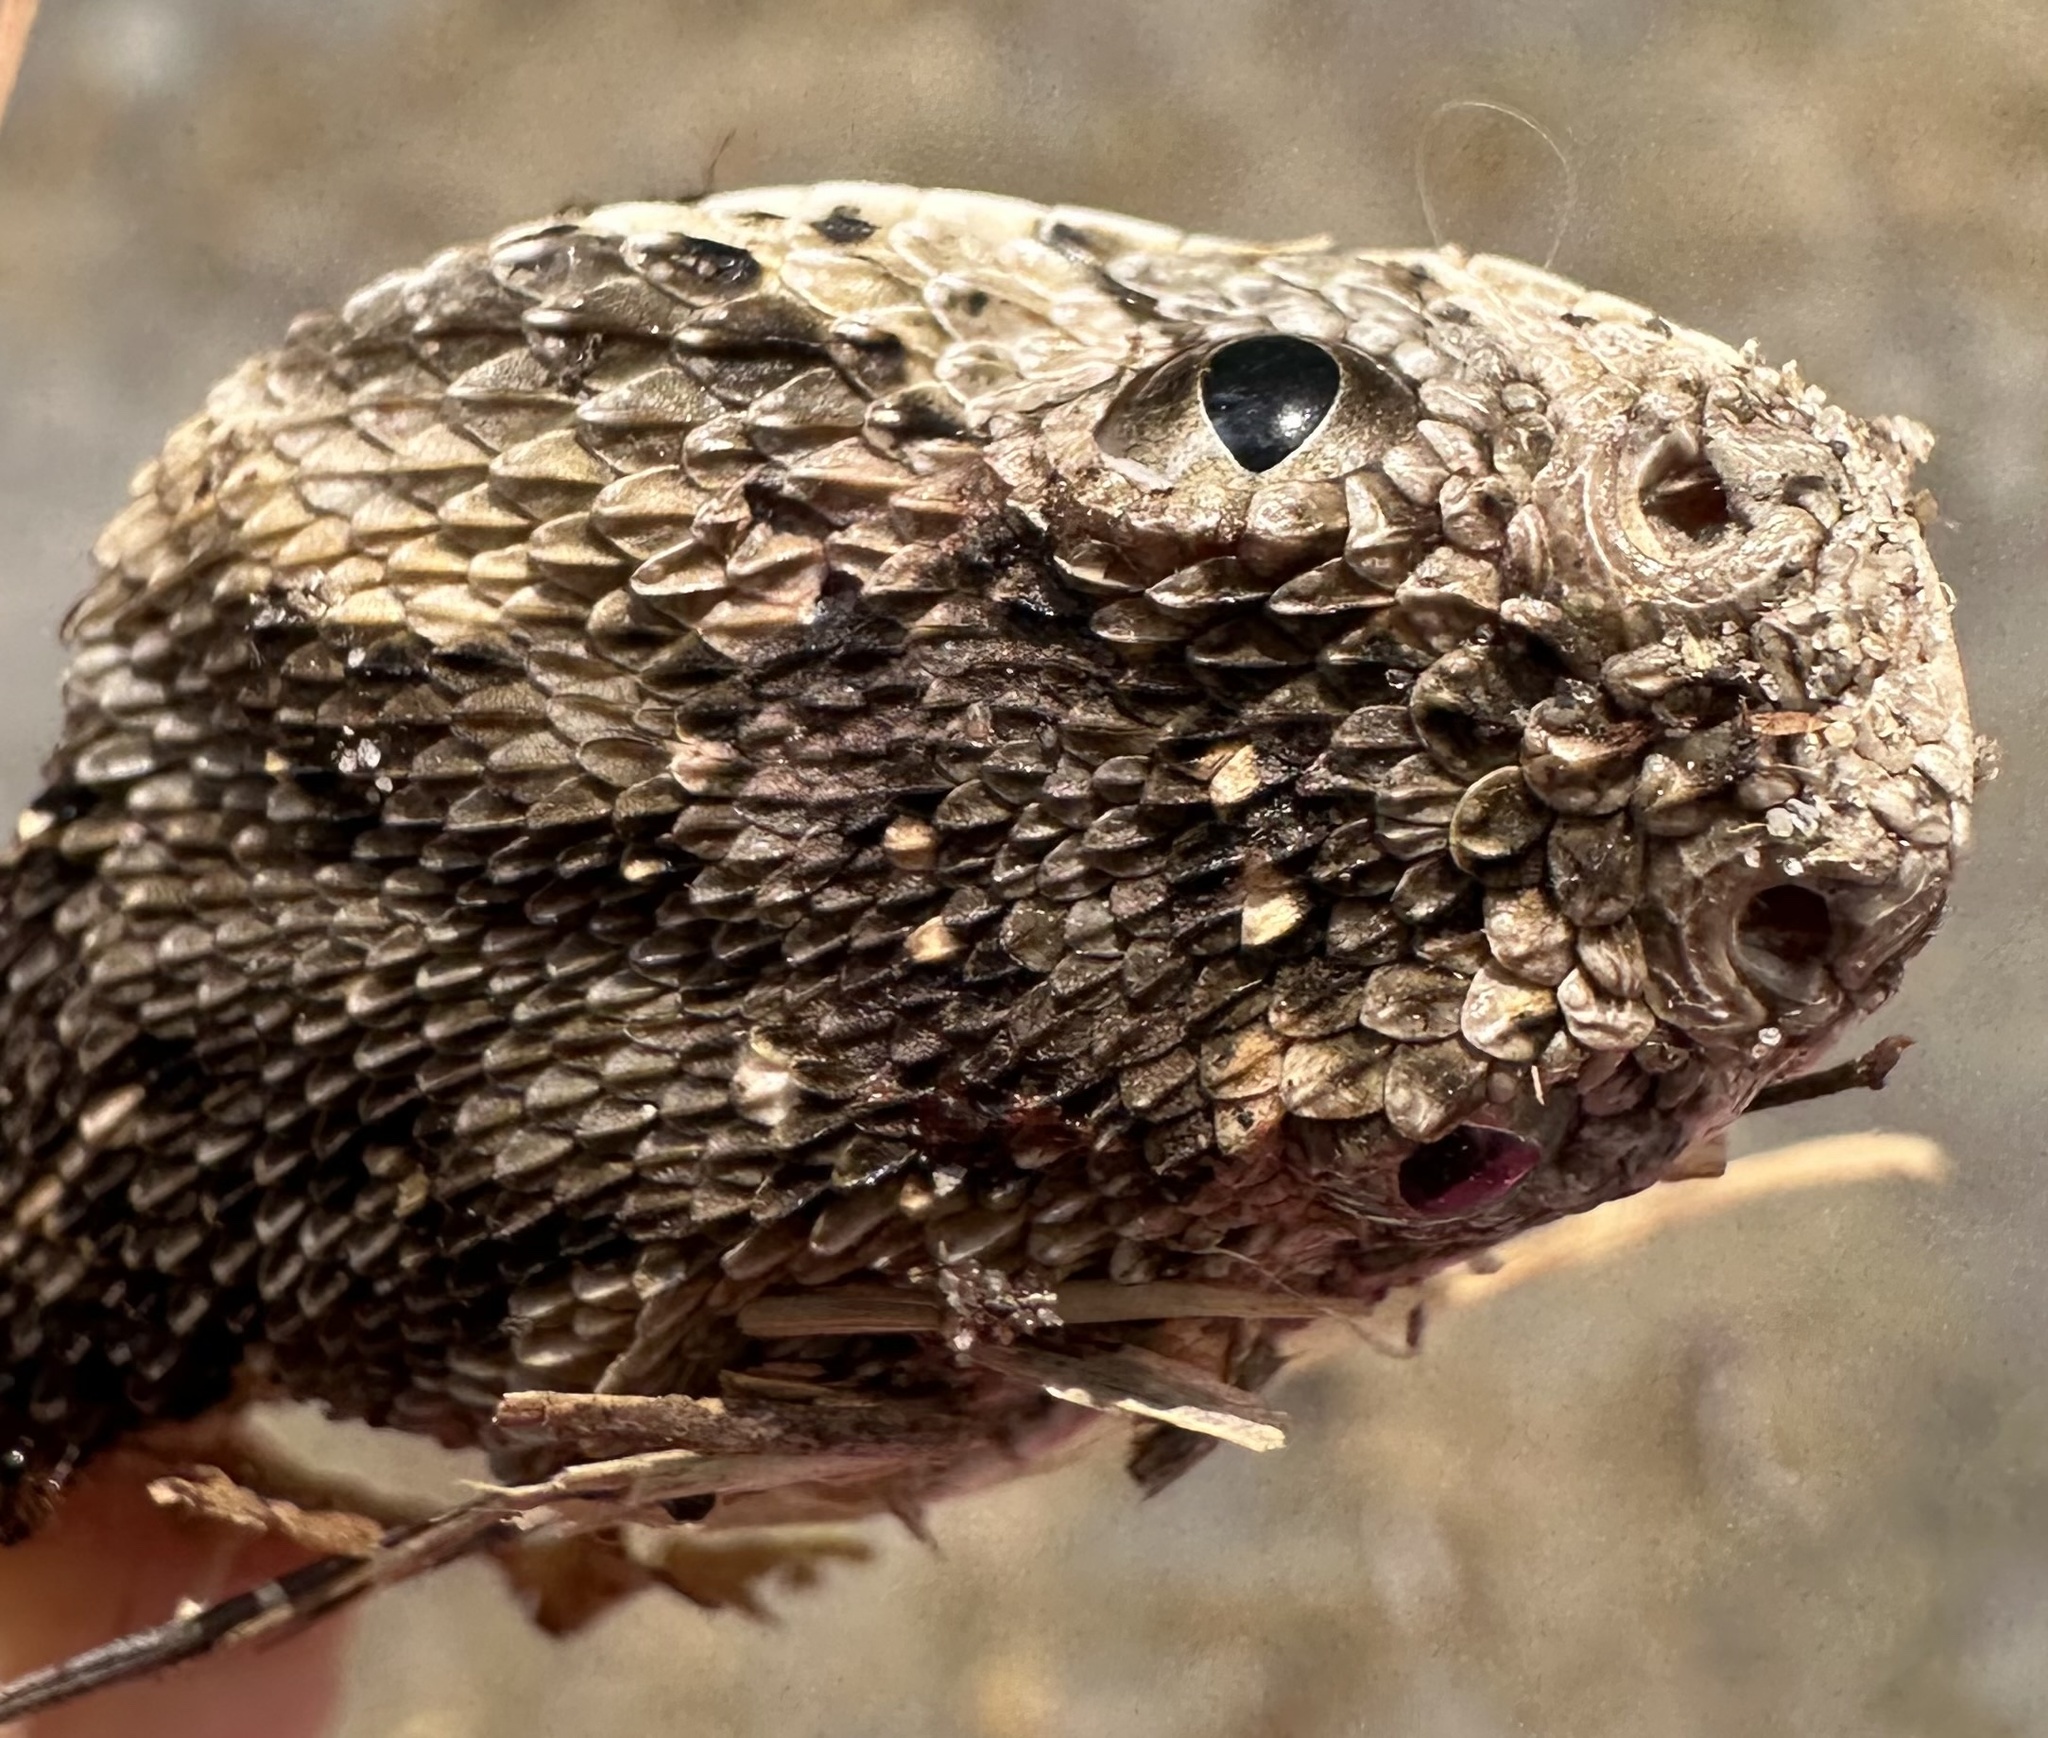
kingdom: Animalia
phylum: Chordata
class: Squamata
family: Viperidae
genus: Bitis
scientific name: Bitis arietans
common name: Puff adder
